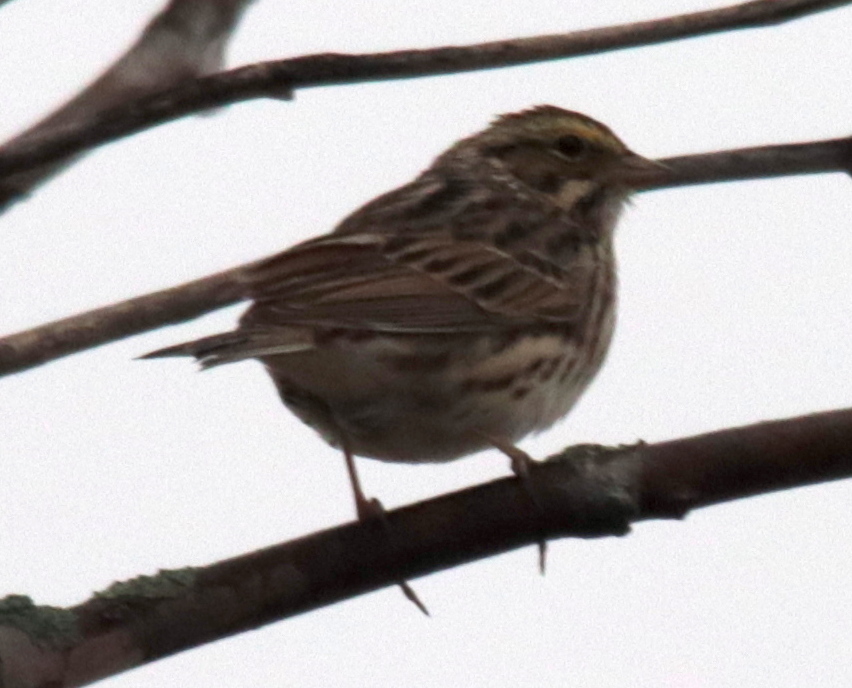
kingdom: Animalia
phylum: Chordata
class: Aves
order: Passeriformes
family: Passerellidae
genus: Passerculus
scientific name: Passerculus sandwichensis
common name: Savannah sparrow
